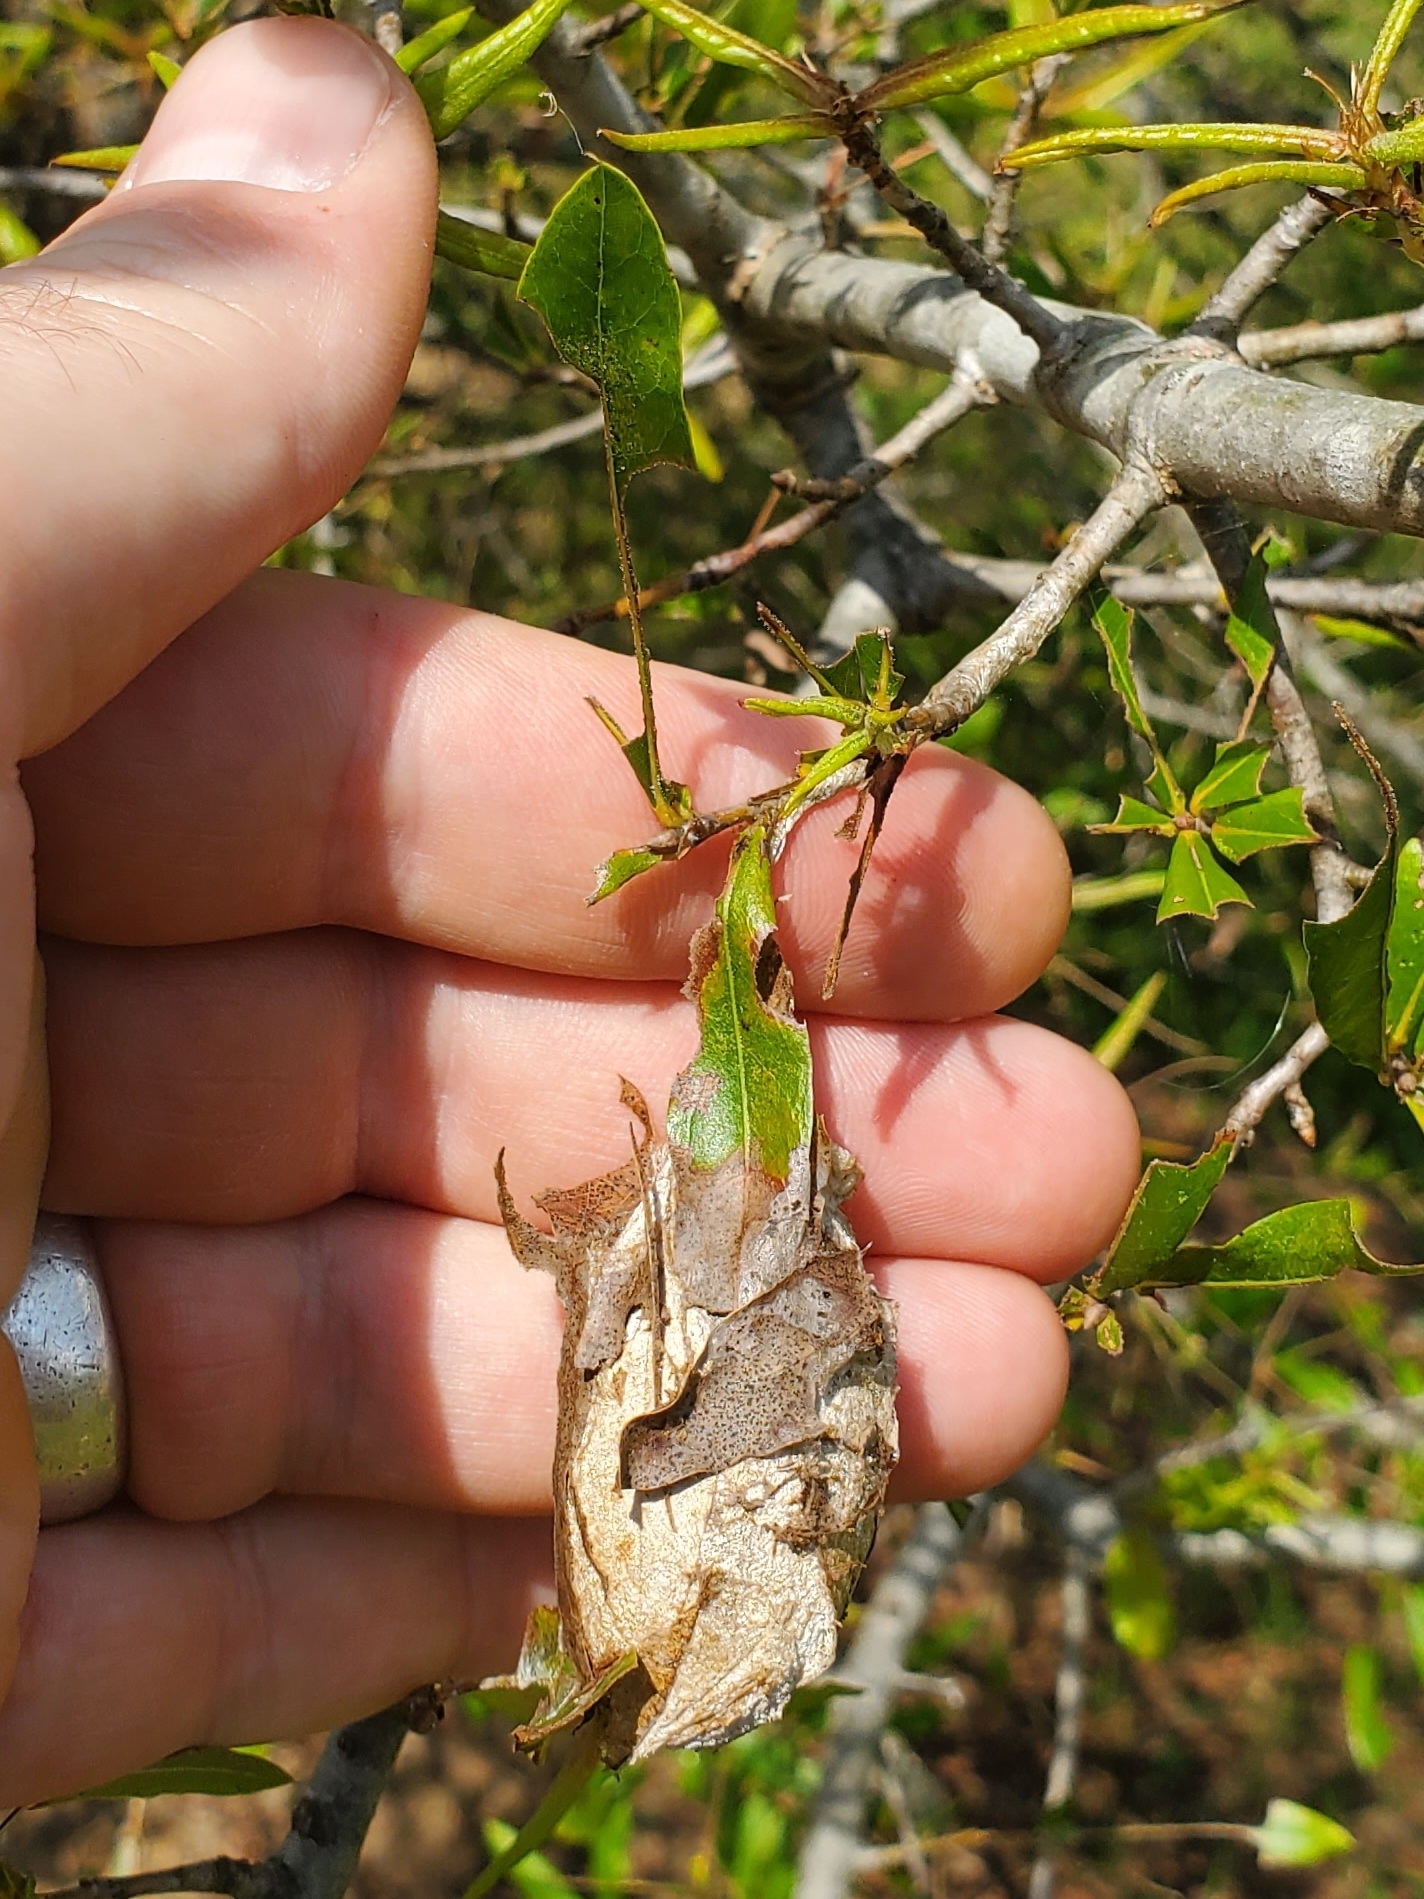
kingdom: Animalia
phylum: Arthropoda
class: Insecta
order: Lepidoptera
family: Saturniidae
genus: Antheraea
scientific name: Antheraea polyphemus
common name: Polyphemus moth
